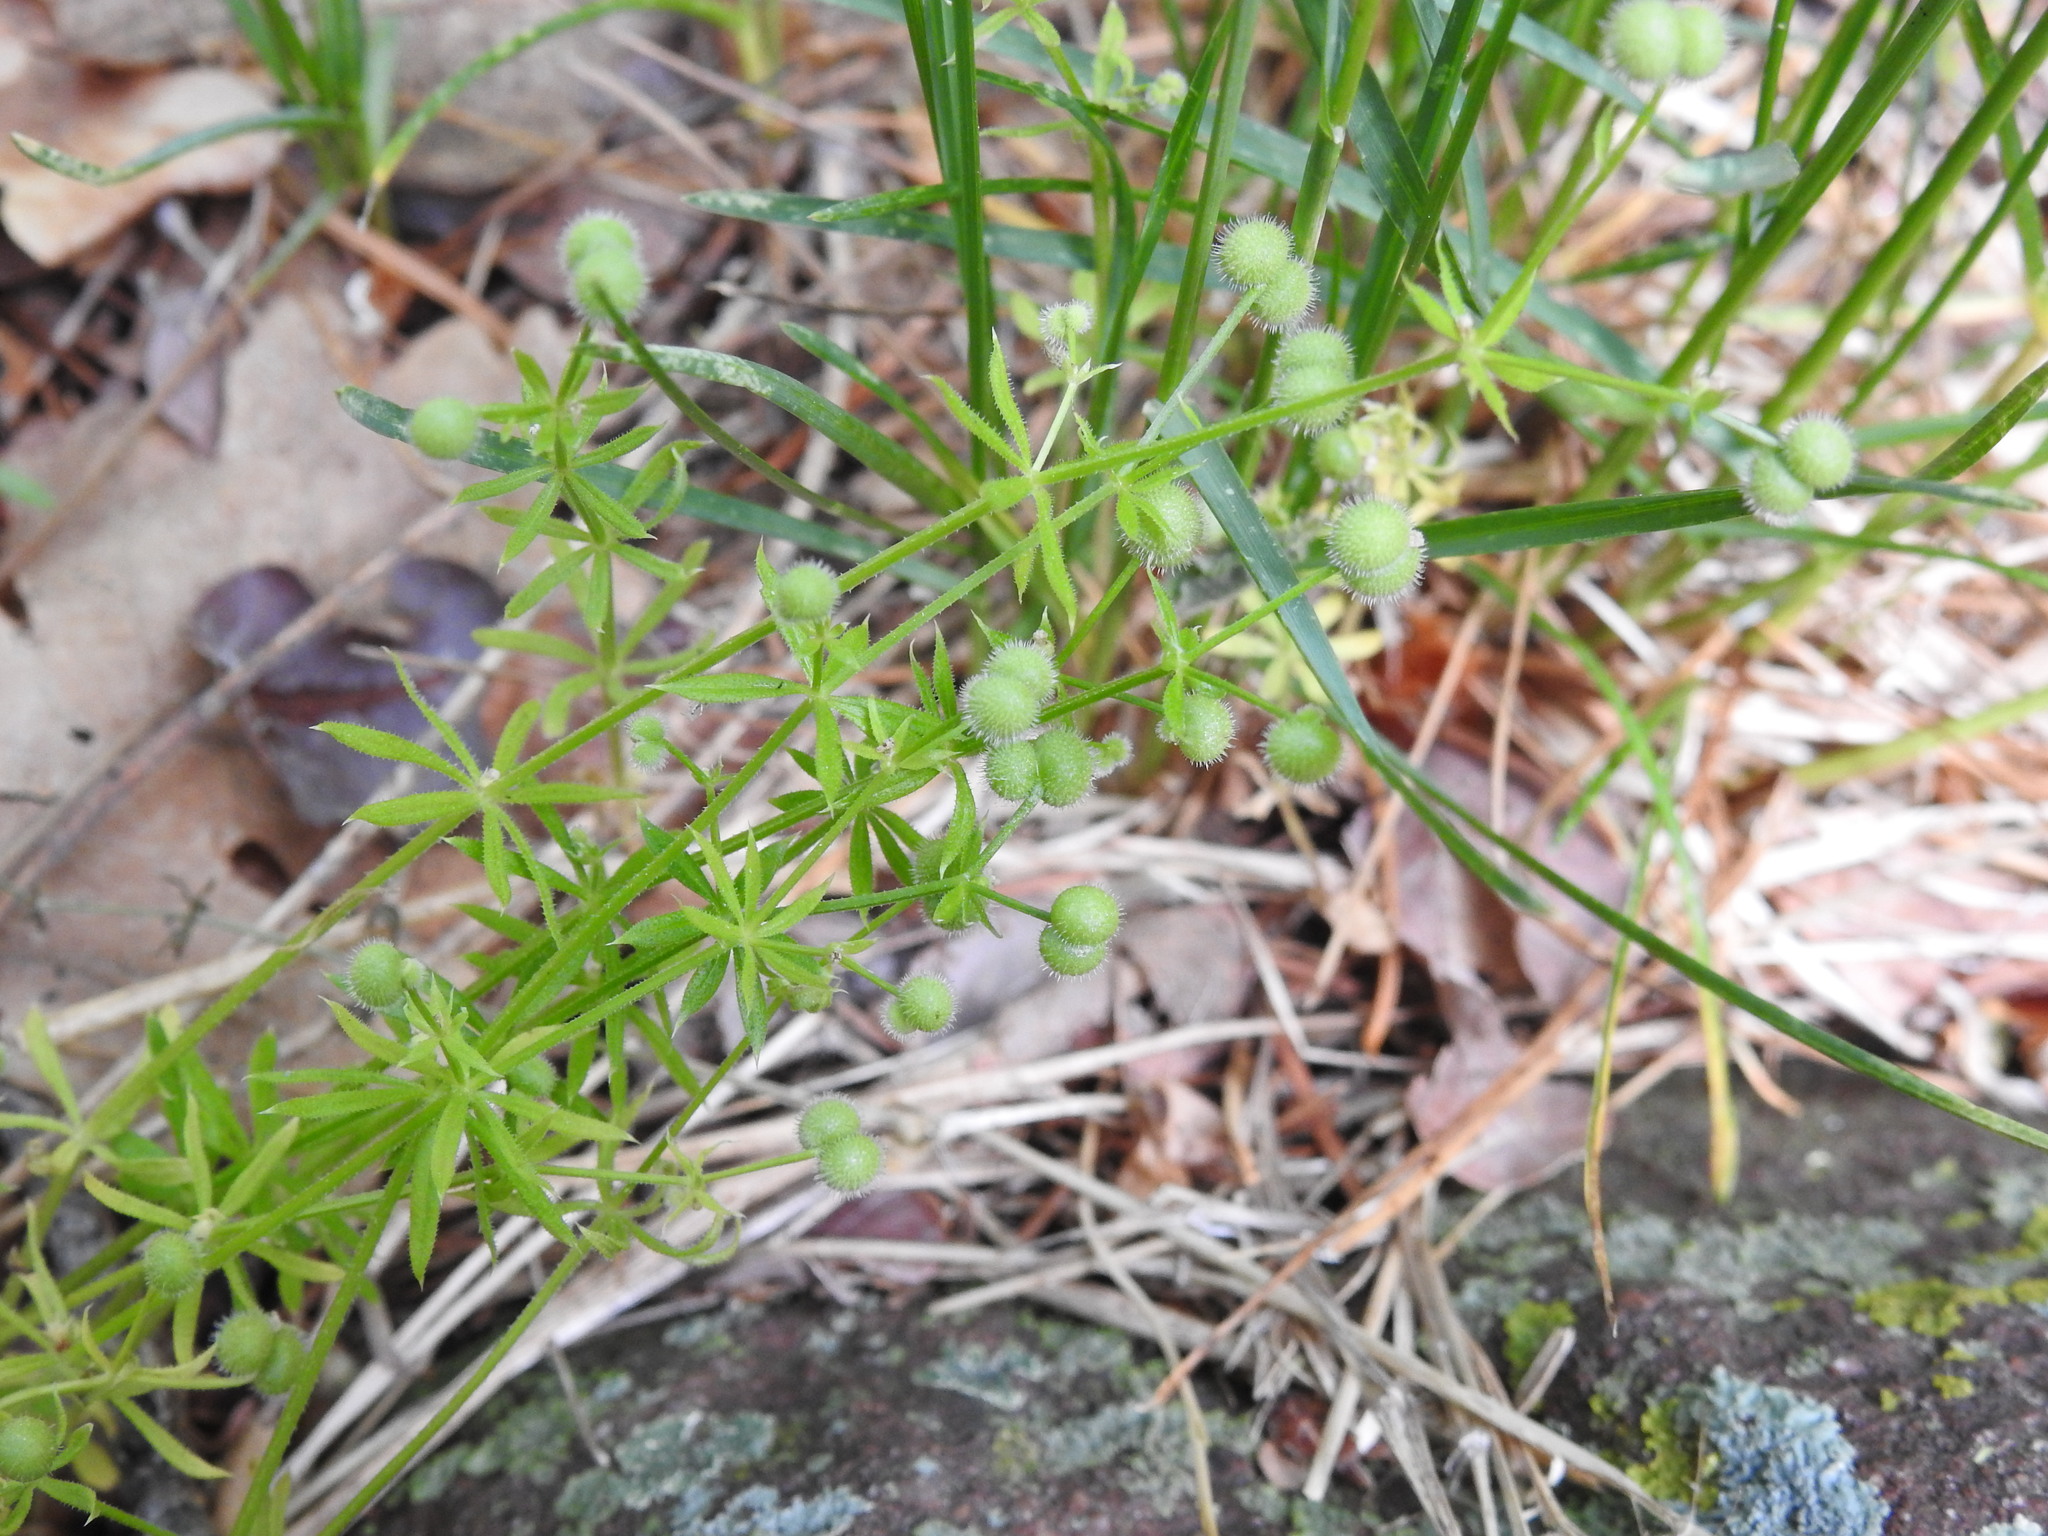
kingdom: Plantae
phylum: Tracheophyta
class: Magnoliopsida
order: Gentianales
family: Rubiaceae
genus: Galium
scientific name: Galium aparine
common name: Cleavers
